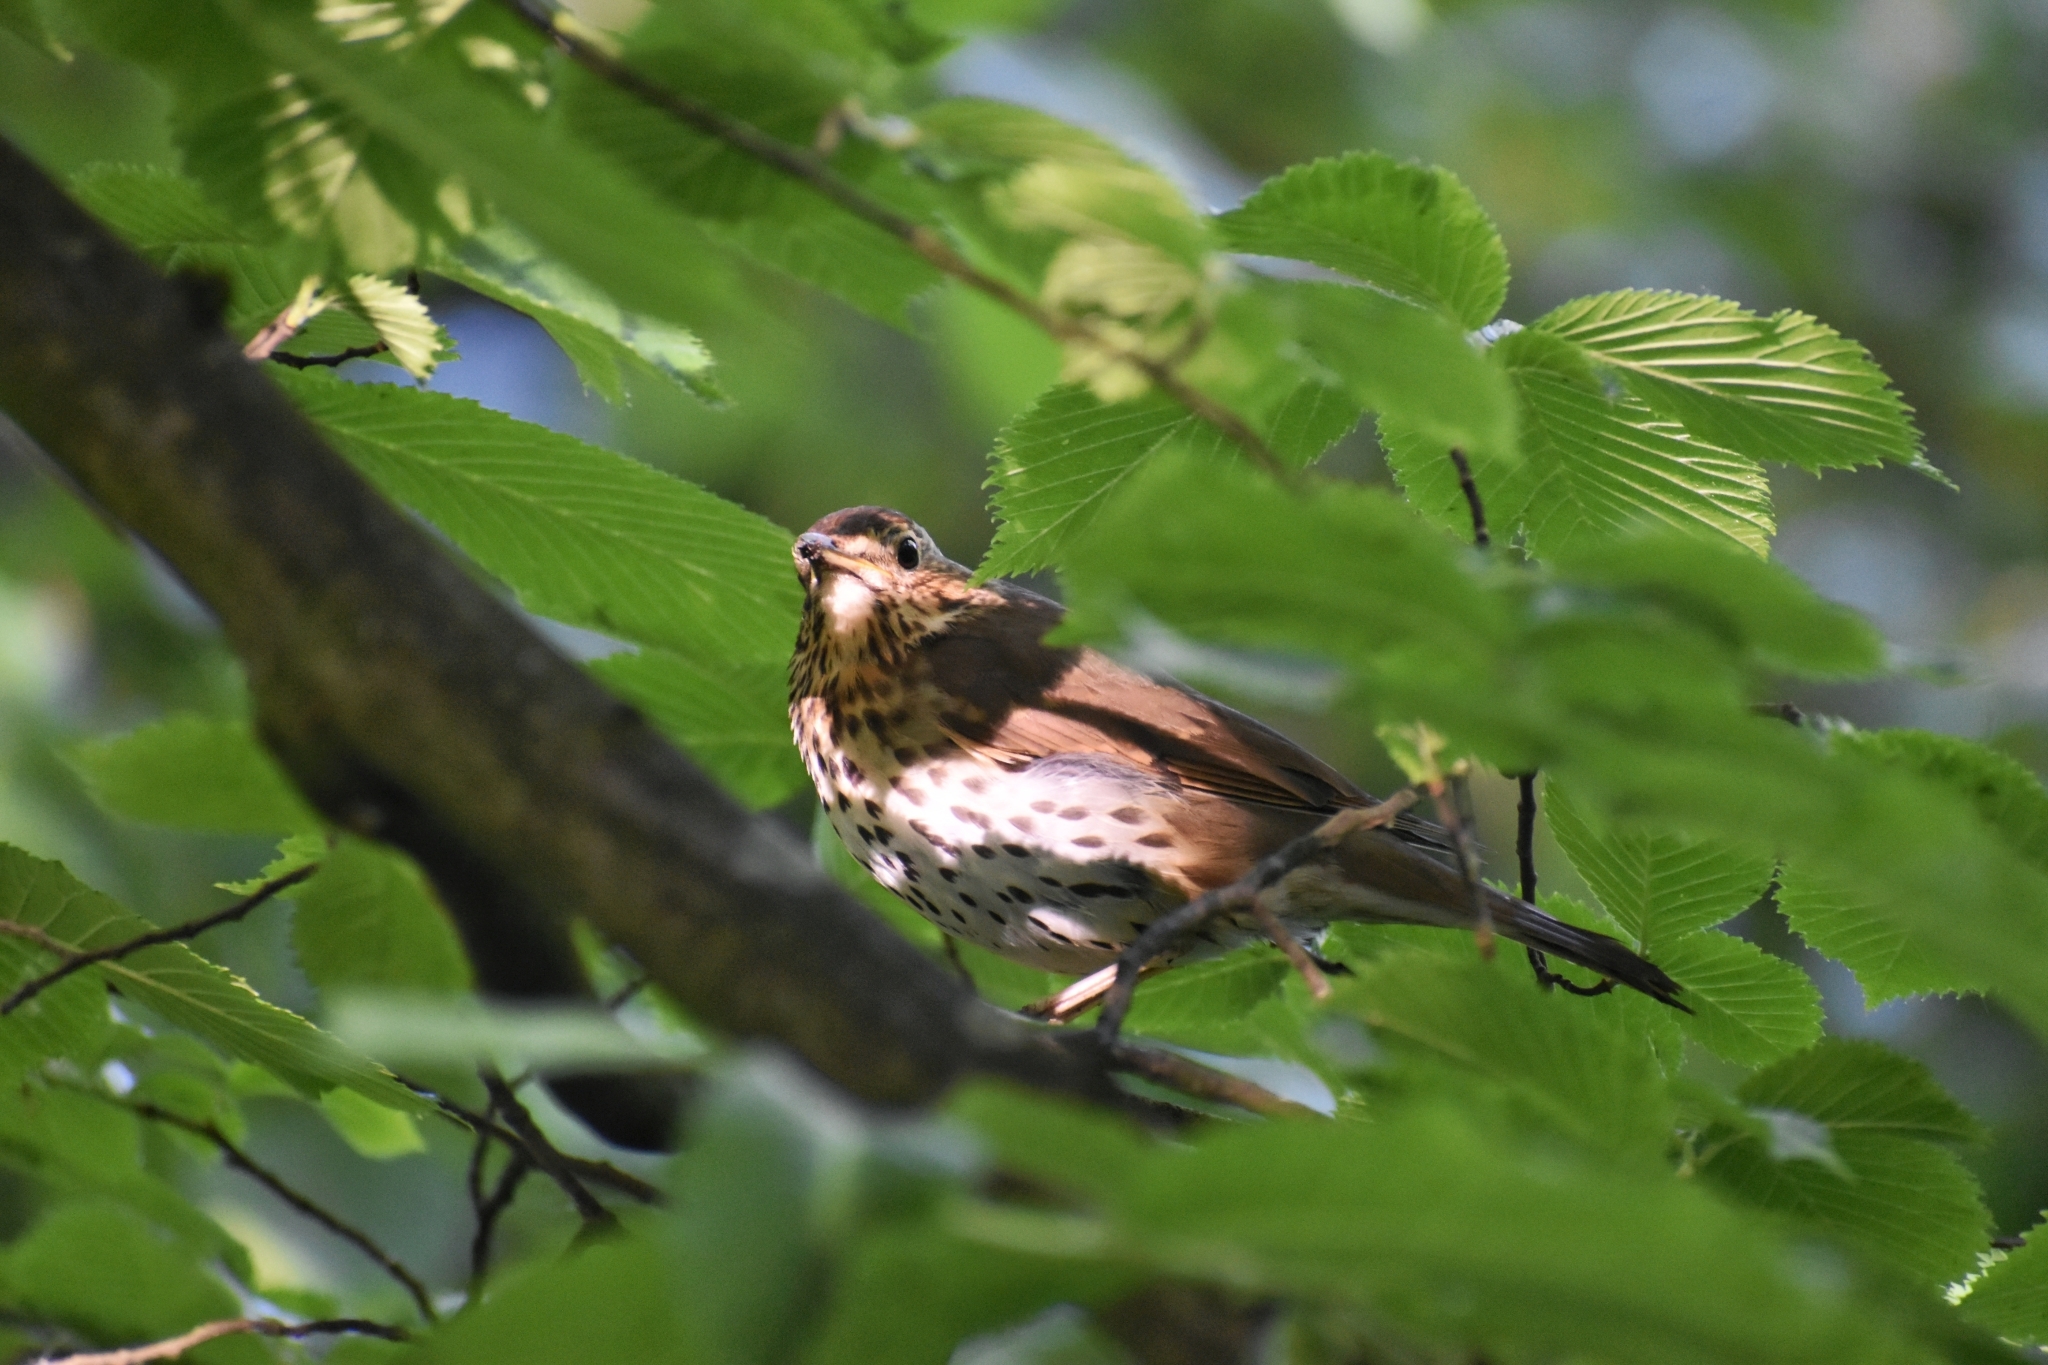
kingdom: Animalia
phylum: Chordata
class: Aves
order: Passeriformes
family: Turdidae
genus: Turdus
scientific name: Turdus philomelos
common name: Song thrush
